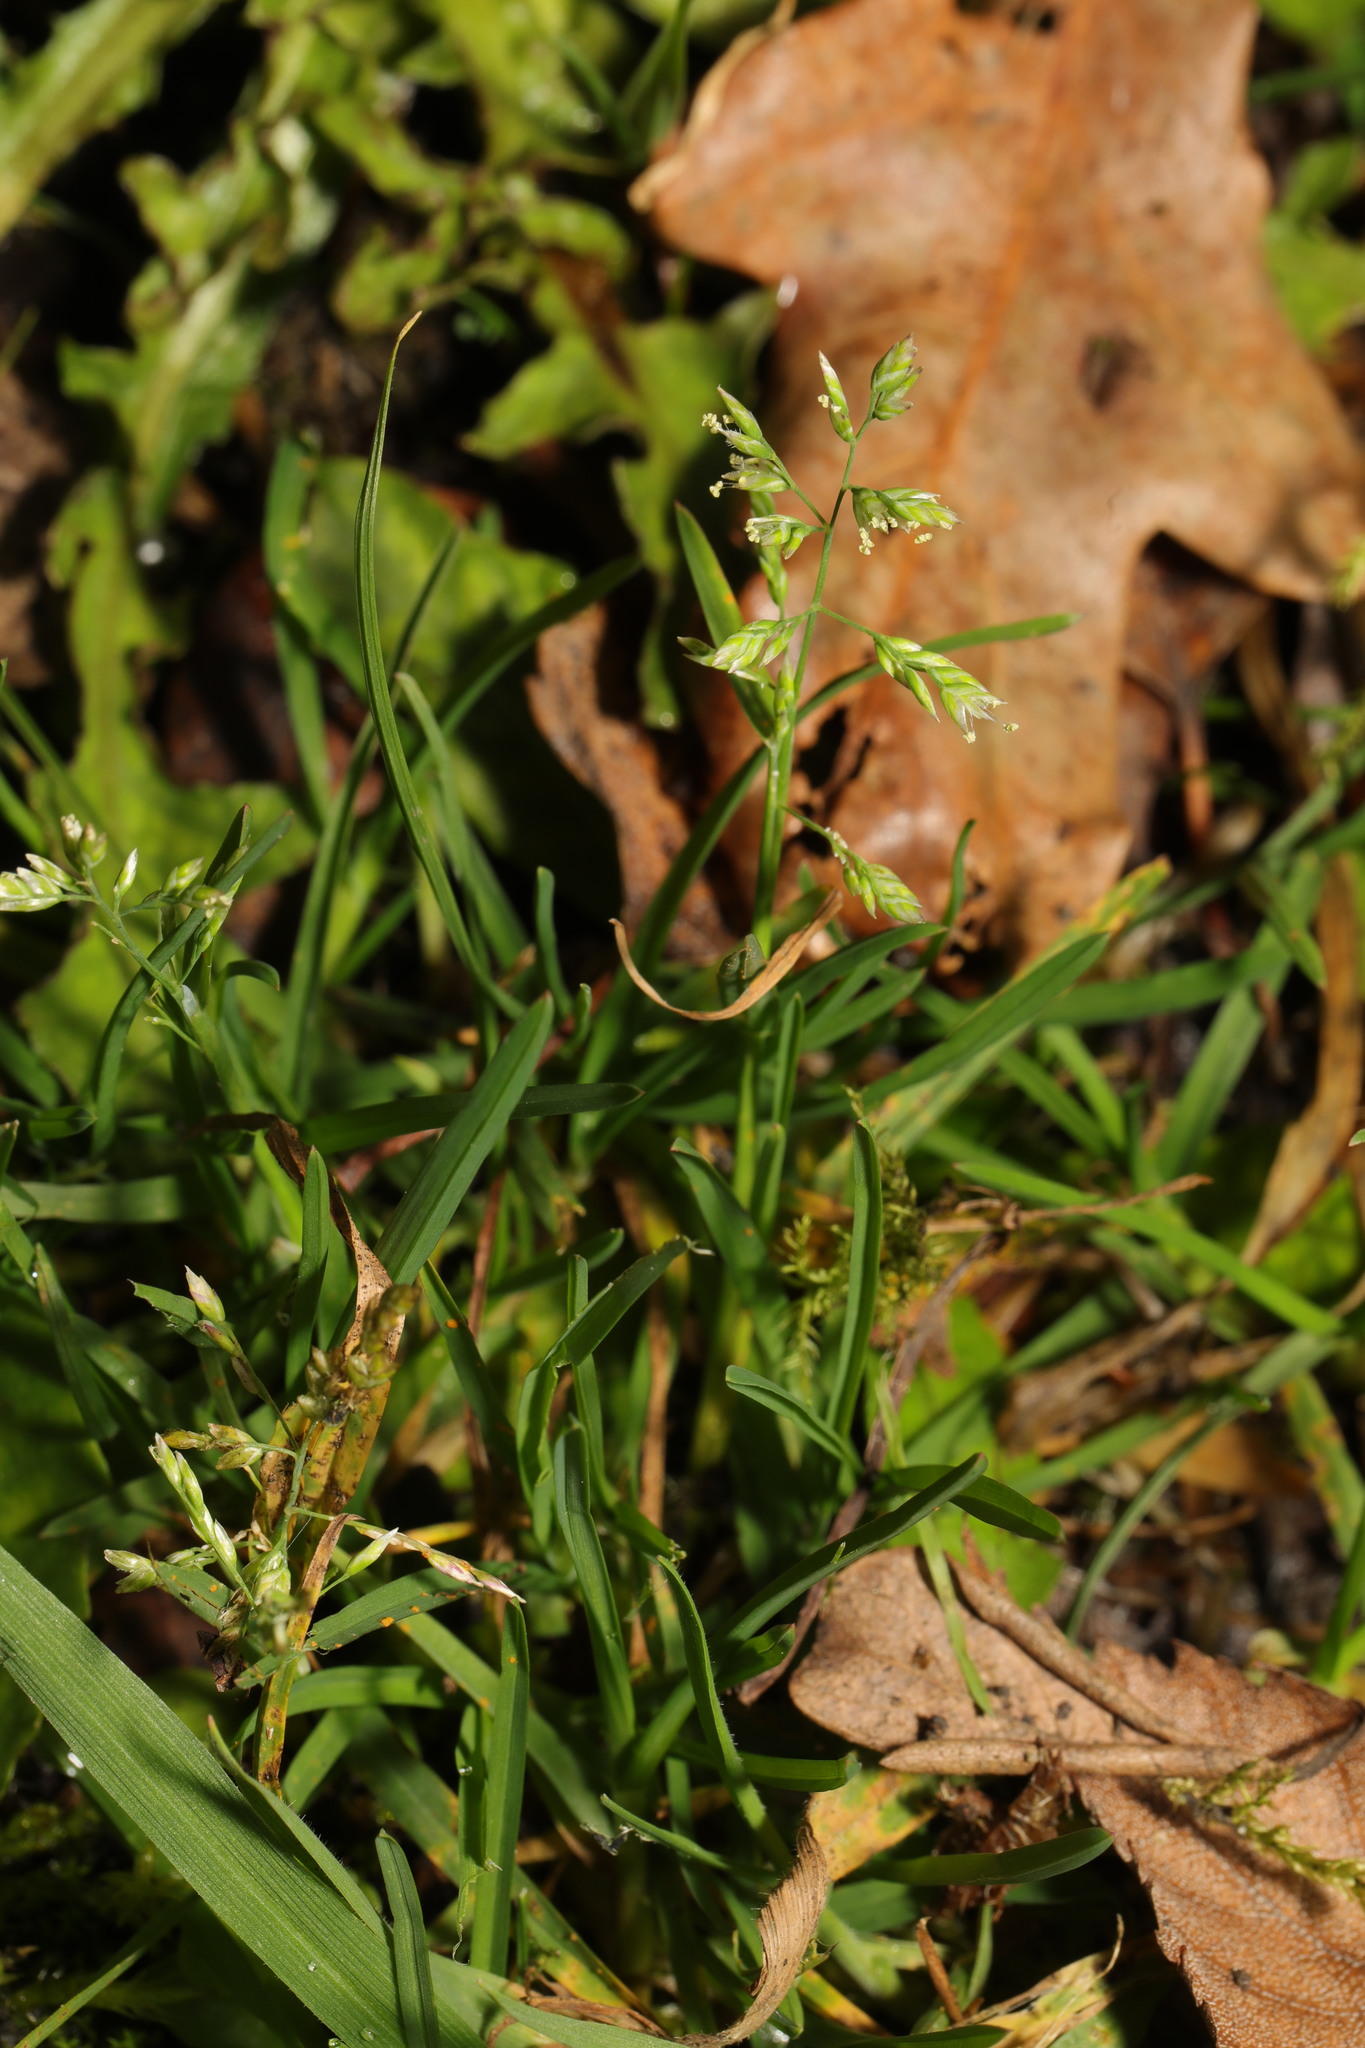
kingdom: Plantae
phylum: Tracheophyta
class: Liliopsida
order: Poales
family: Poaceae
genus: Poa
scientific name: Poa annua
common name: Annual bluegrass
